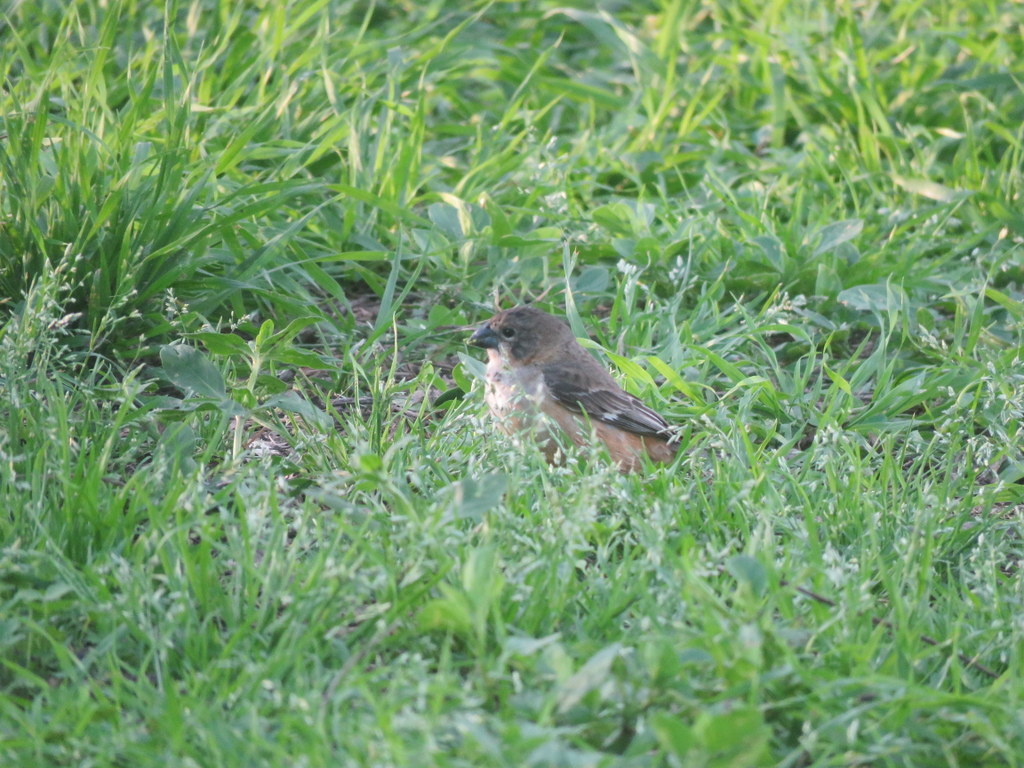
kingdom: Animalia
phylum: Chordata
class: Aves
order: Passeriformes
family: Thraupidae
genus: Sporophila
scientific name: Sporophila collaris
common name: Rusty-collared seedeater
